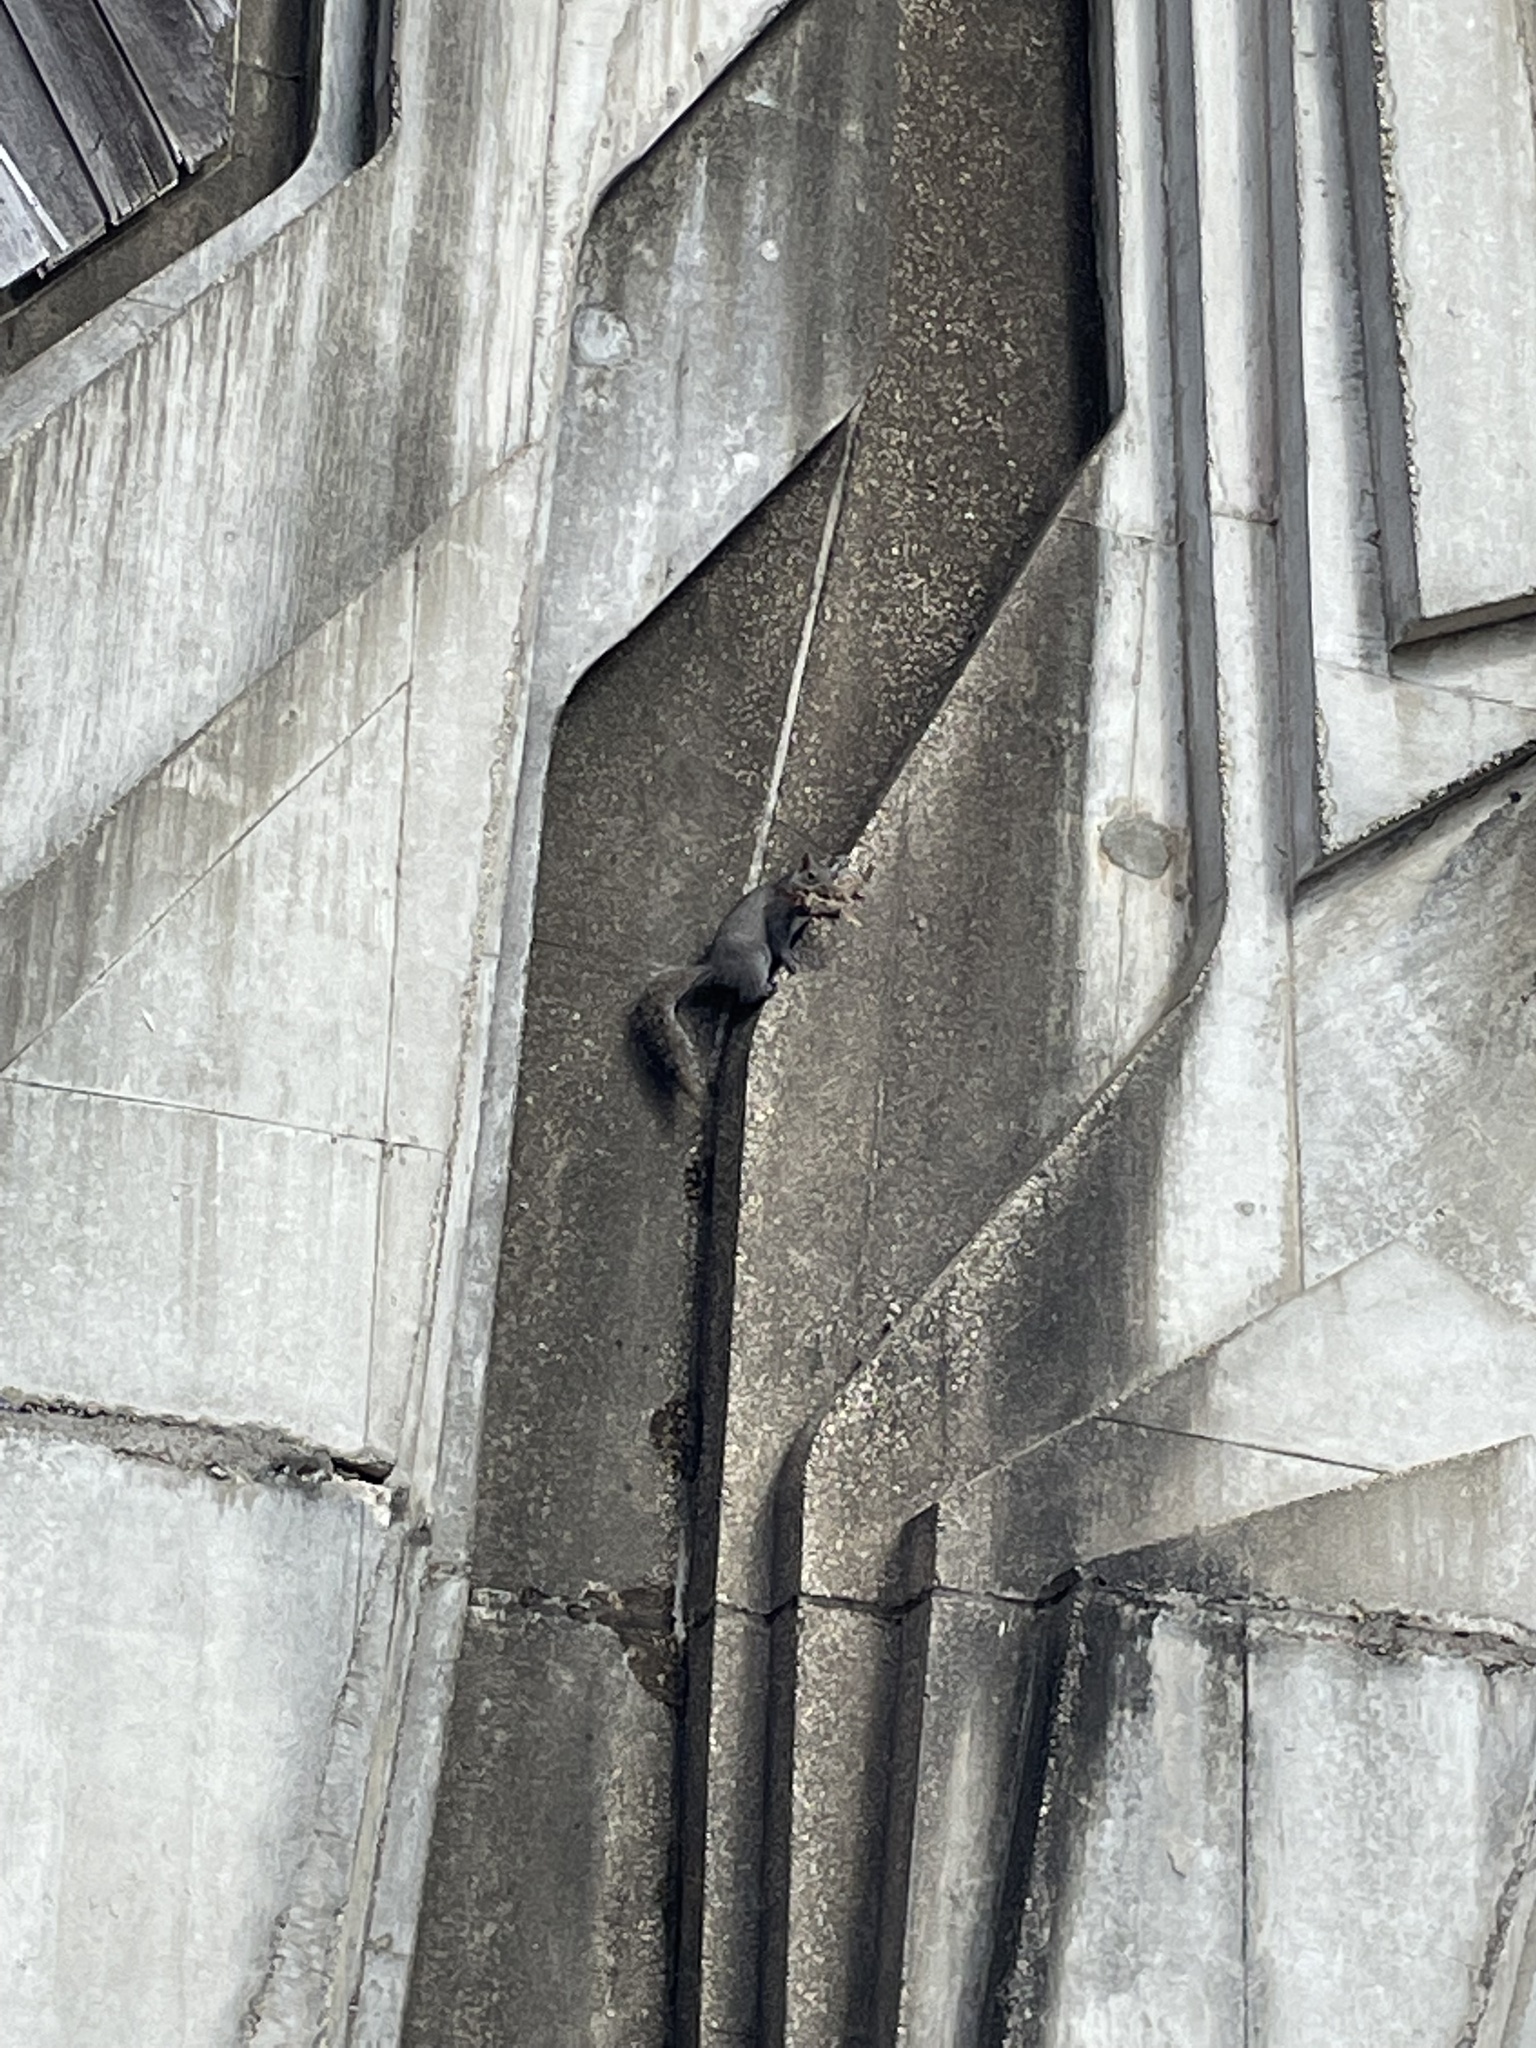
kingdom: Animalia
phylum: Chordata
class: Mammalia
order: Rodentia
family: Sciuridae
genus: Sciurus
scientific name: Sciurus carolinensis
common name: Eastern gray squirrel
